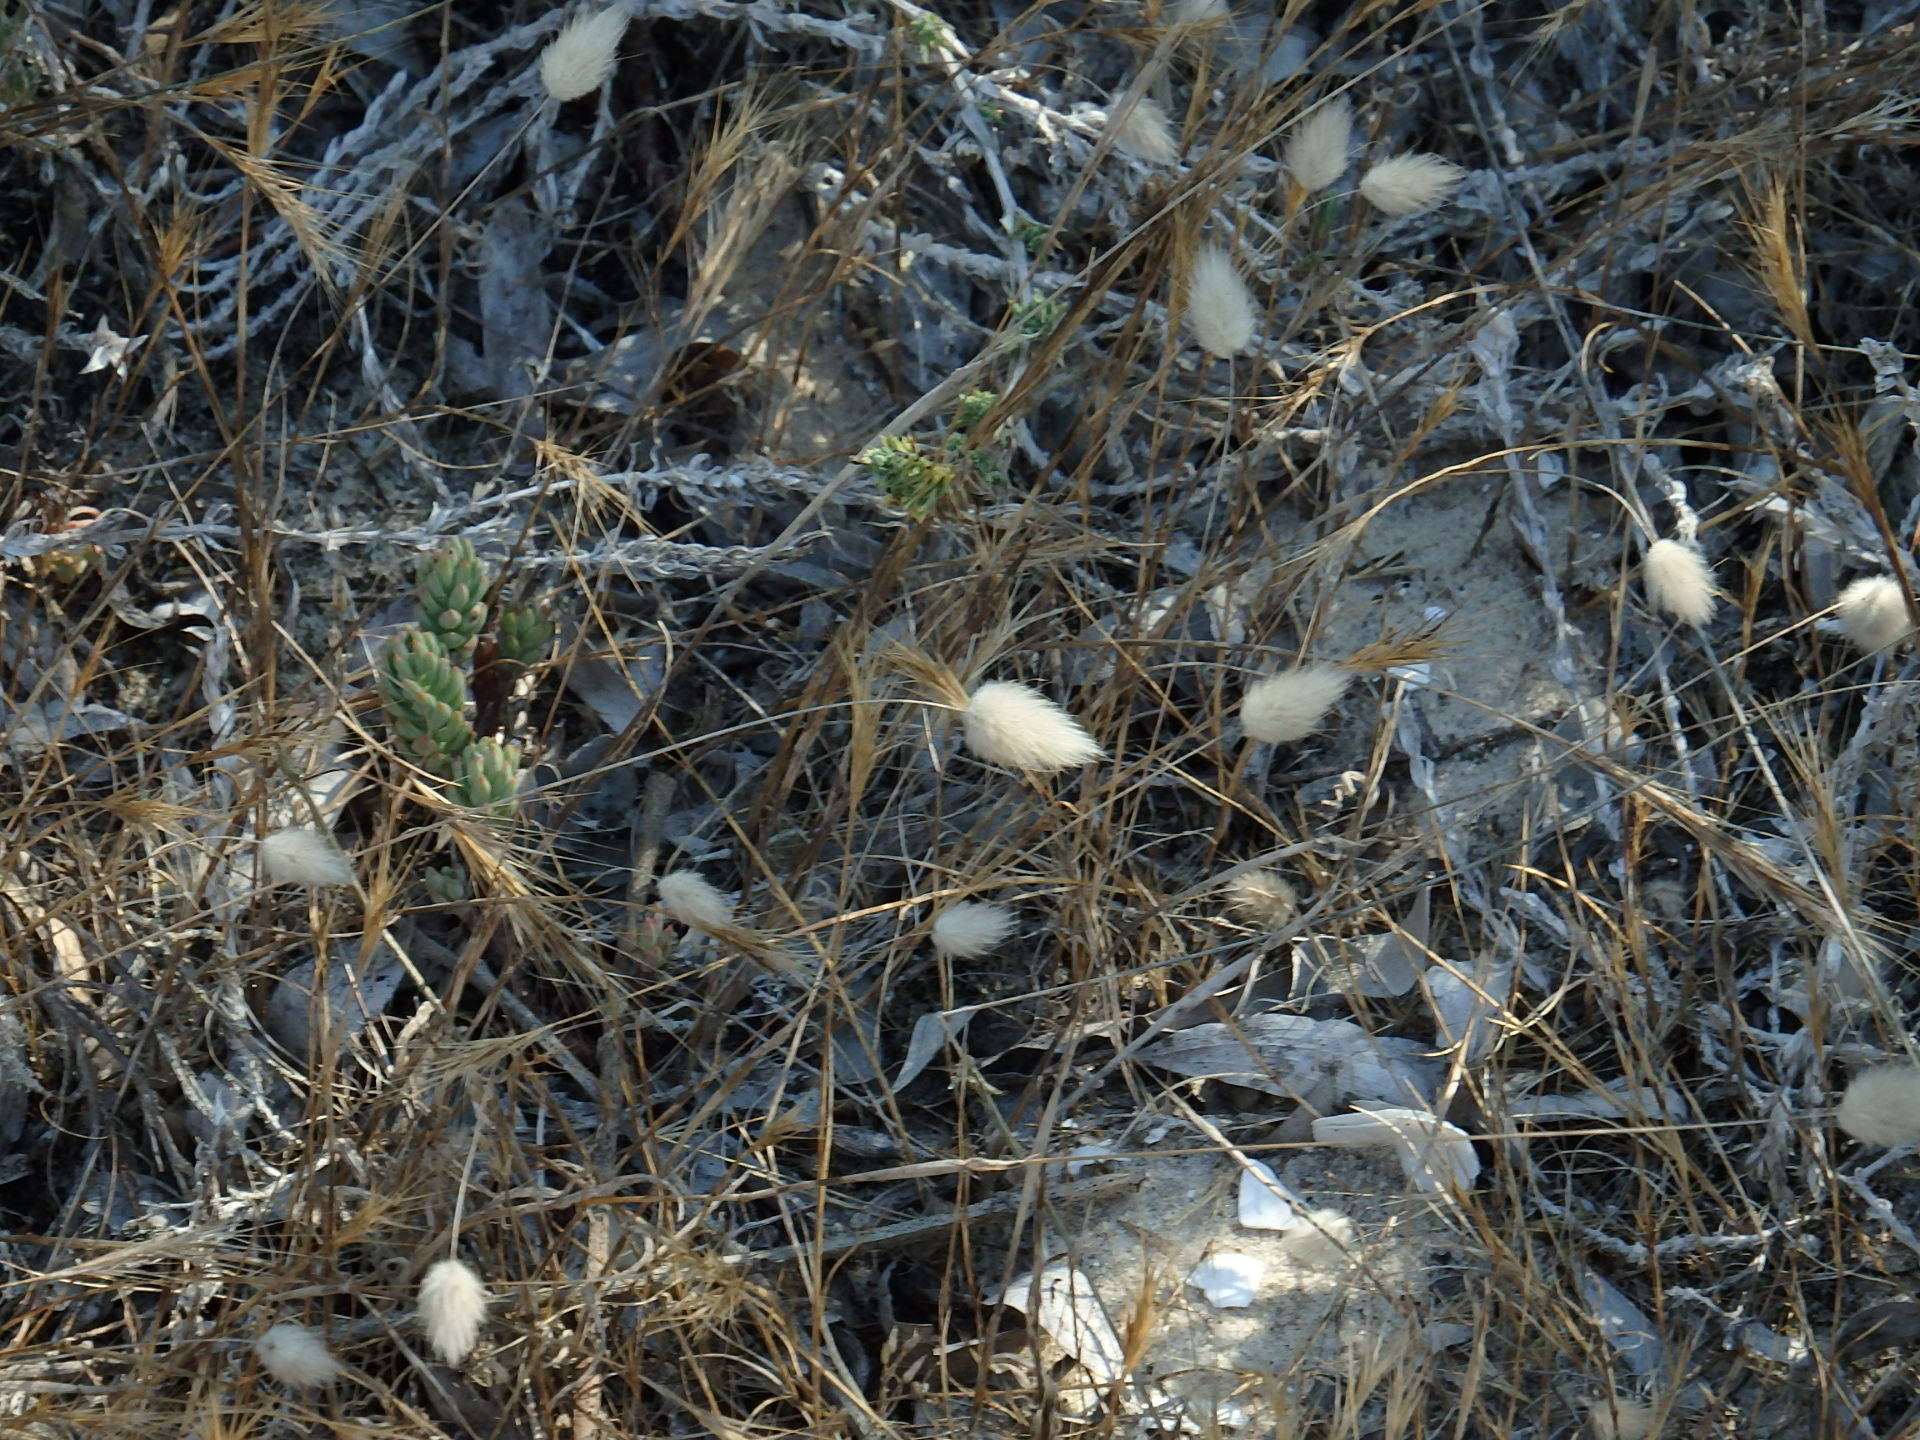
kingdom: Plantae
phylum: Tracheophyta
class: Liliopsida
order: Poales
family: Poaceae
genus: Lagurus
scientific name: Lagurus ovatus
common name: Hare's-tail
